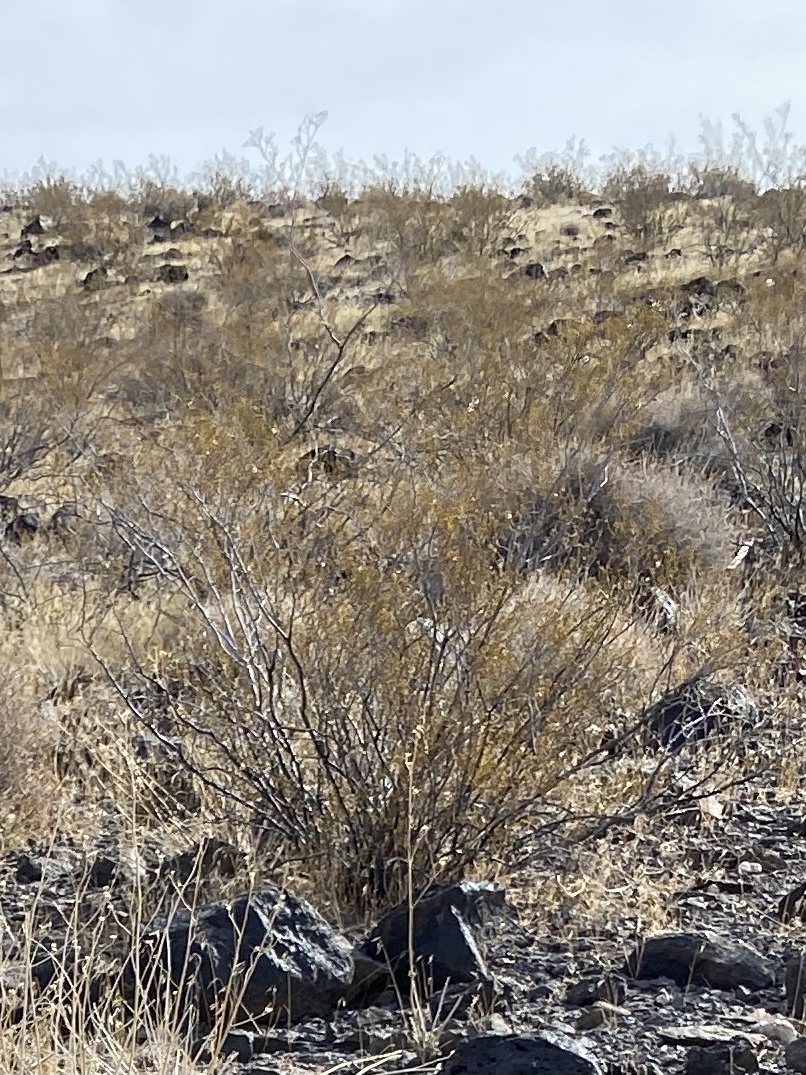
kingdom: Plantae
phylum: Tracheophyta
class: Magnoliopsida
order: Zygophyllales
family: Zygophyllaceae
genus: Larrea
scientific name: Larrea tridentata
